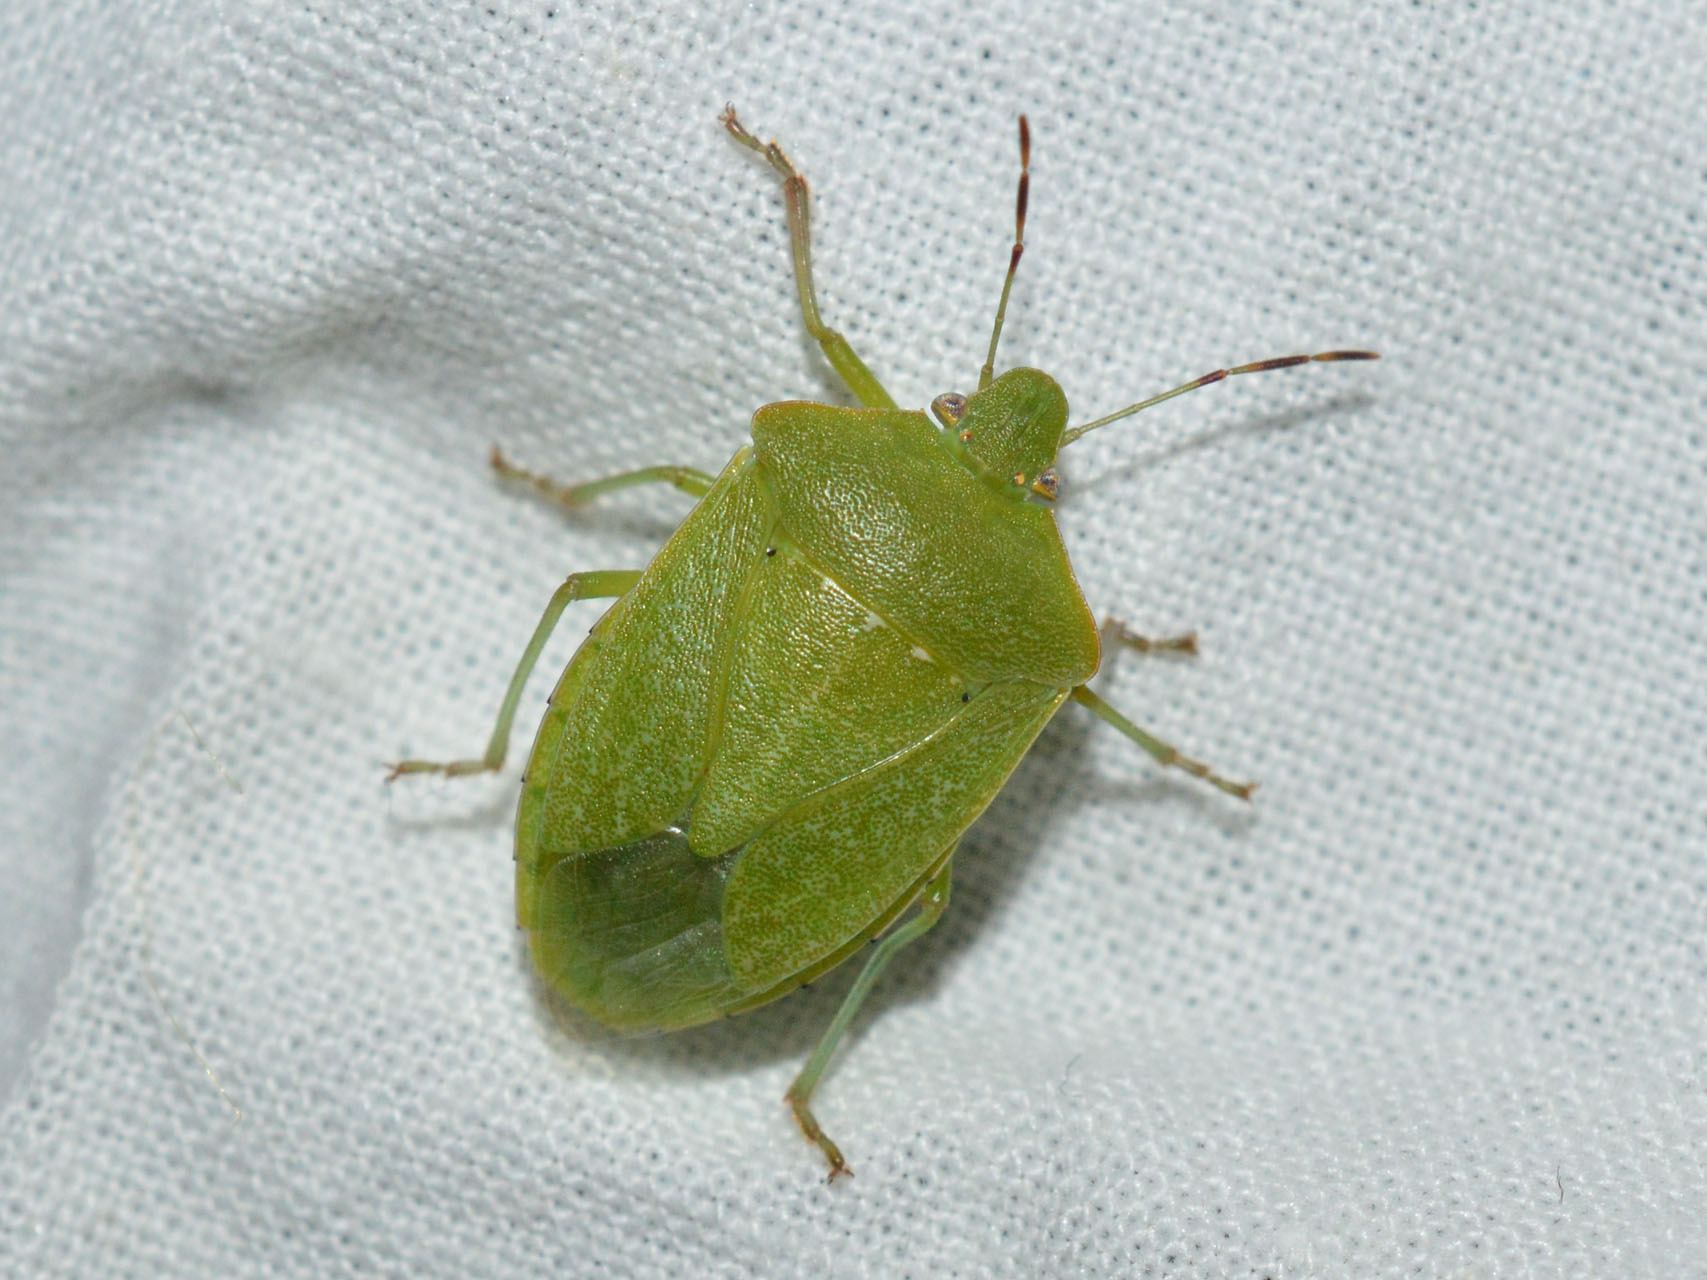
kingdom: Animalia
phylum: Arthropoda
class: Insecta
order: Hemiptera
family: Pentatomidae
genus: Nezara
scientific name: Nezara viridula
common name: Southern green stink bug
